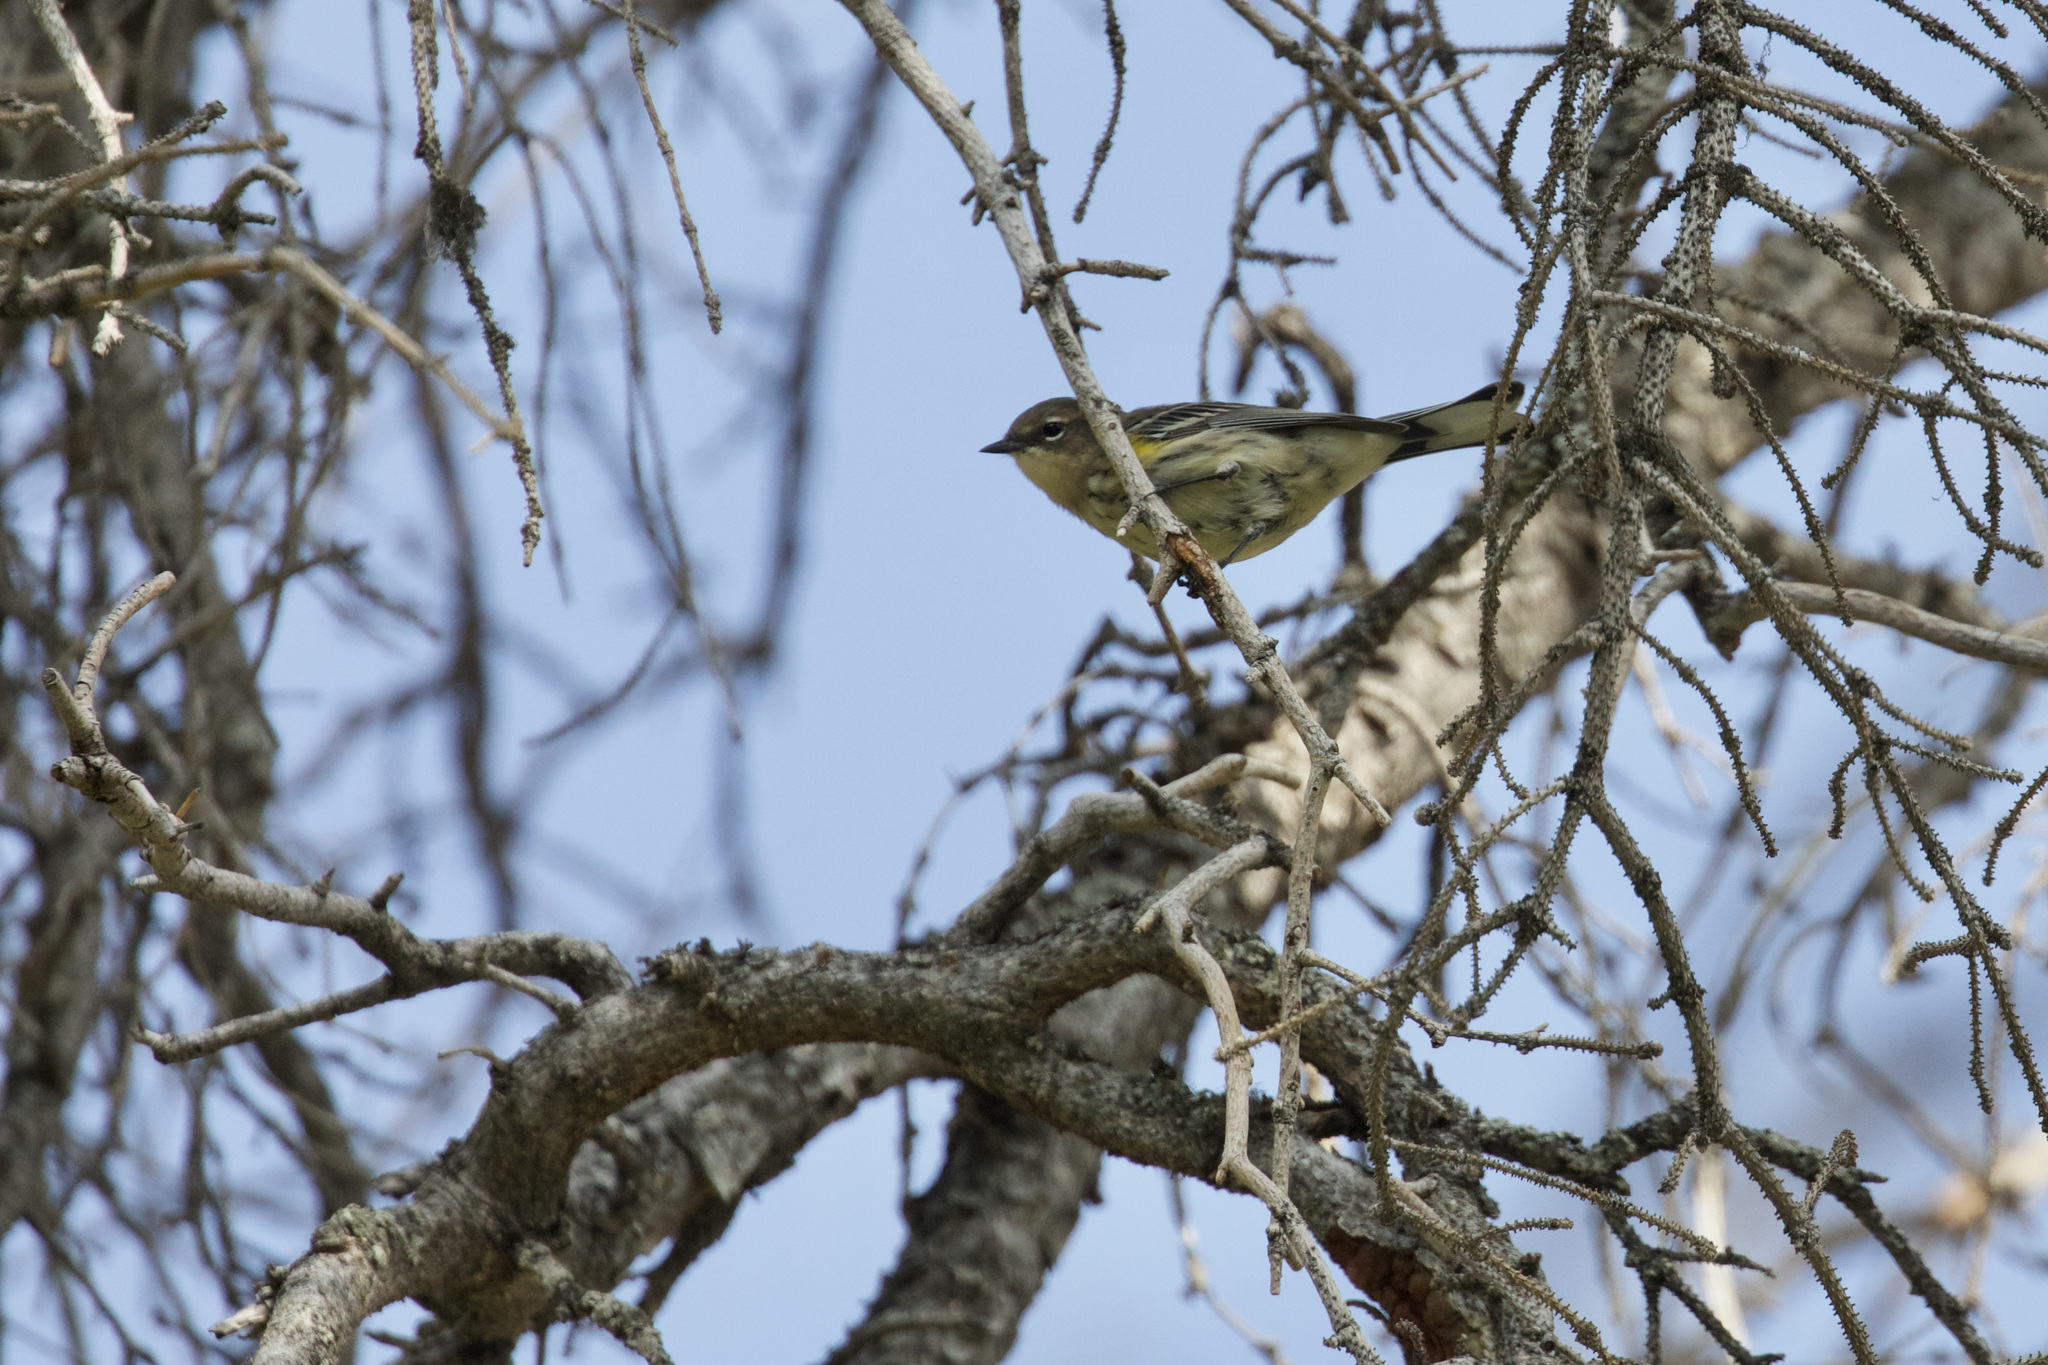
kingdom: Animalia
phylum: Chordata
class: Aves
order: Passeriformes
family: Parulidae
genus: Setophaga
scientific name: Setophaga coronata
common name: Myrtle warbler
